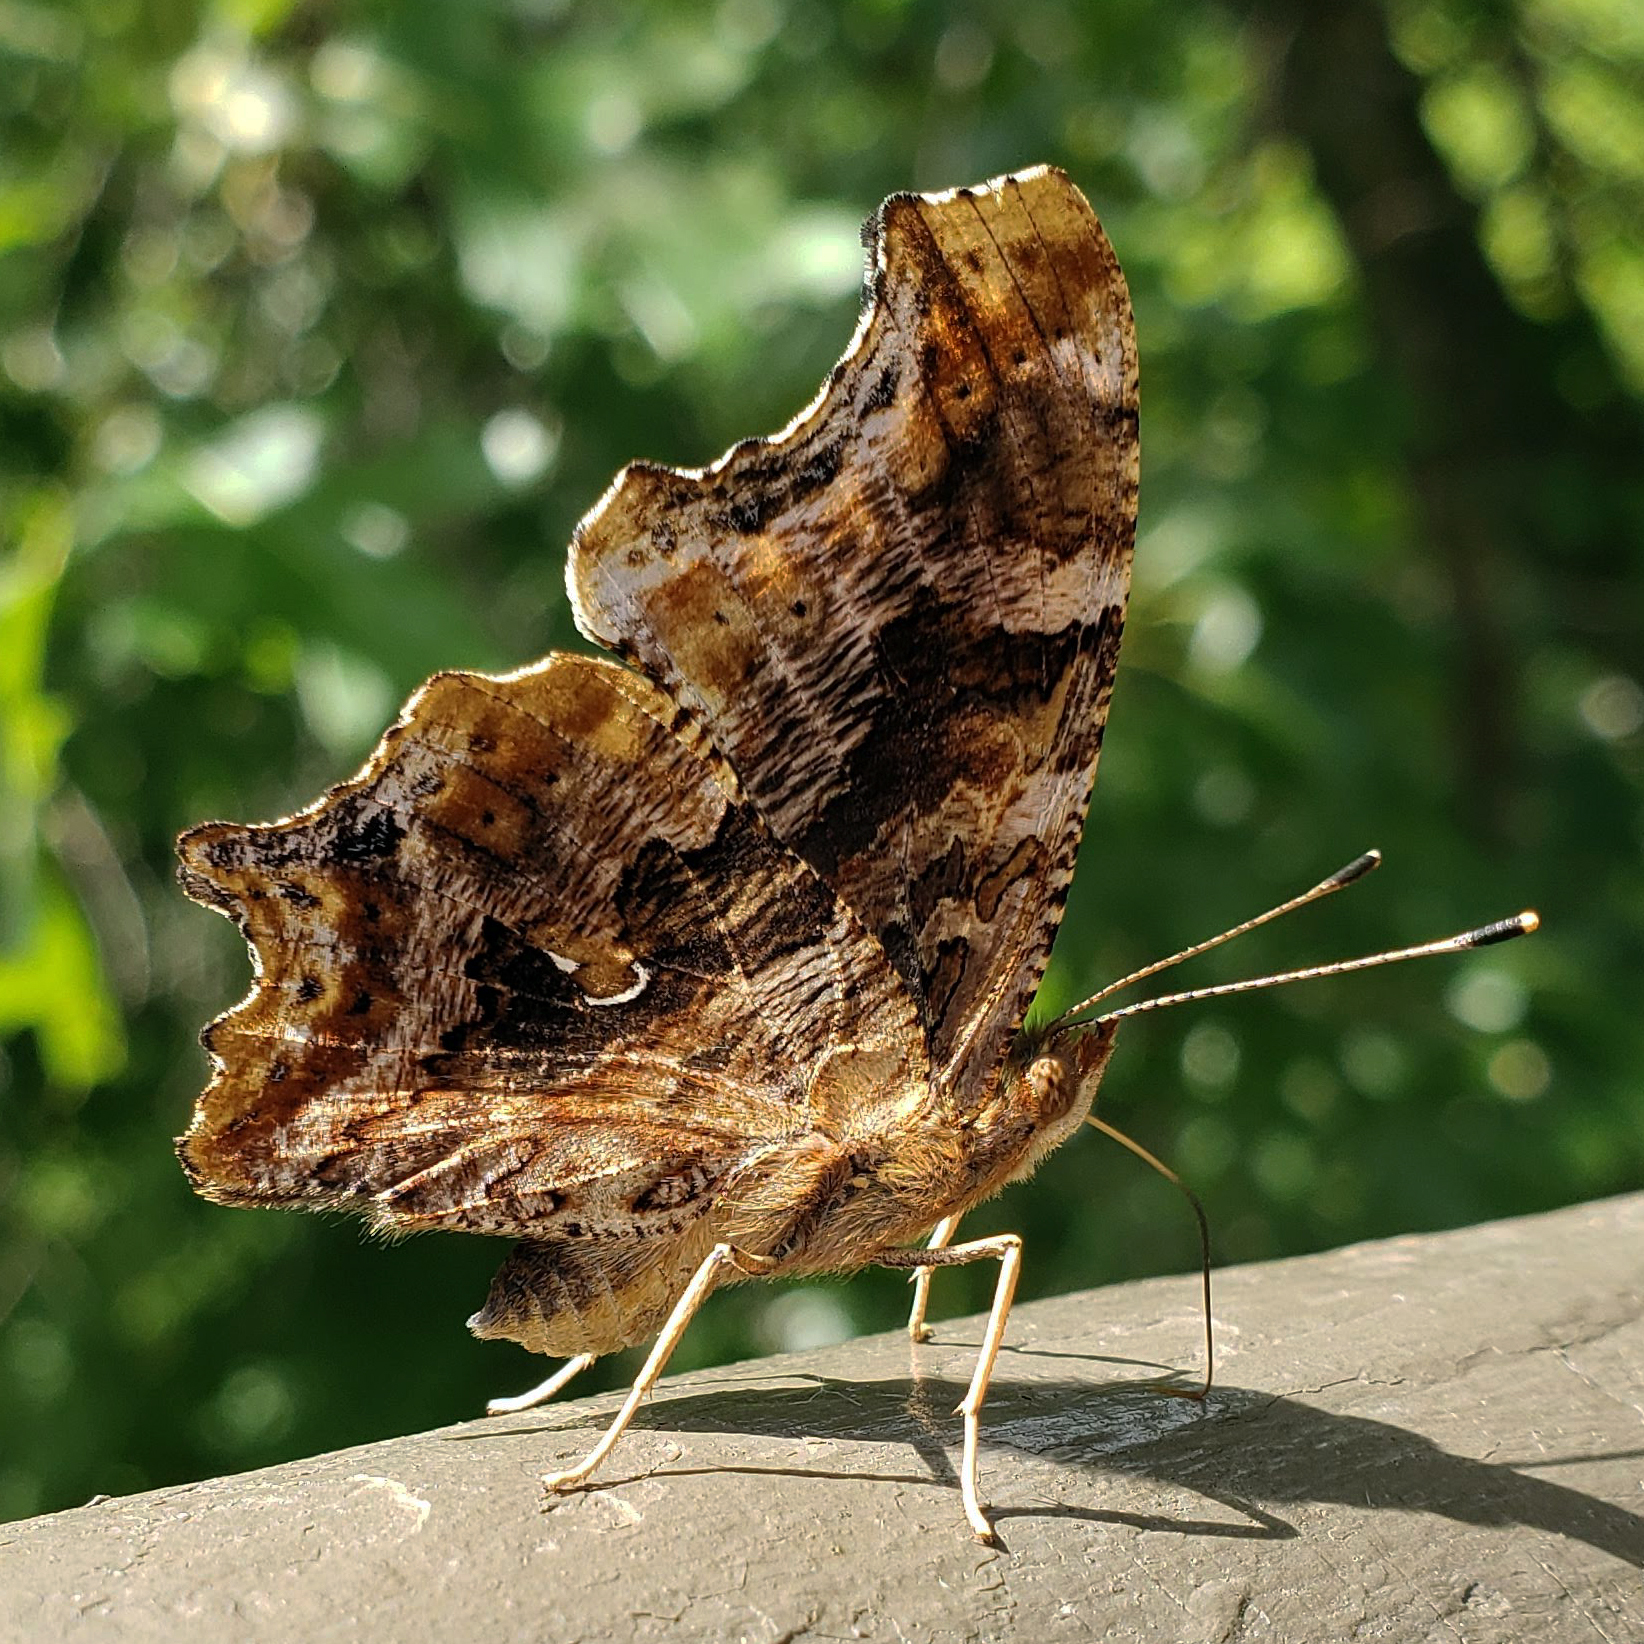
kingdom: Animalia
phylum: Arthropoda
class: Insecta
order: Lepidoptera
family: Nymphalidae
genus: Polygonia
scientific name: Polygonia interrogationis
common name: Question mark
